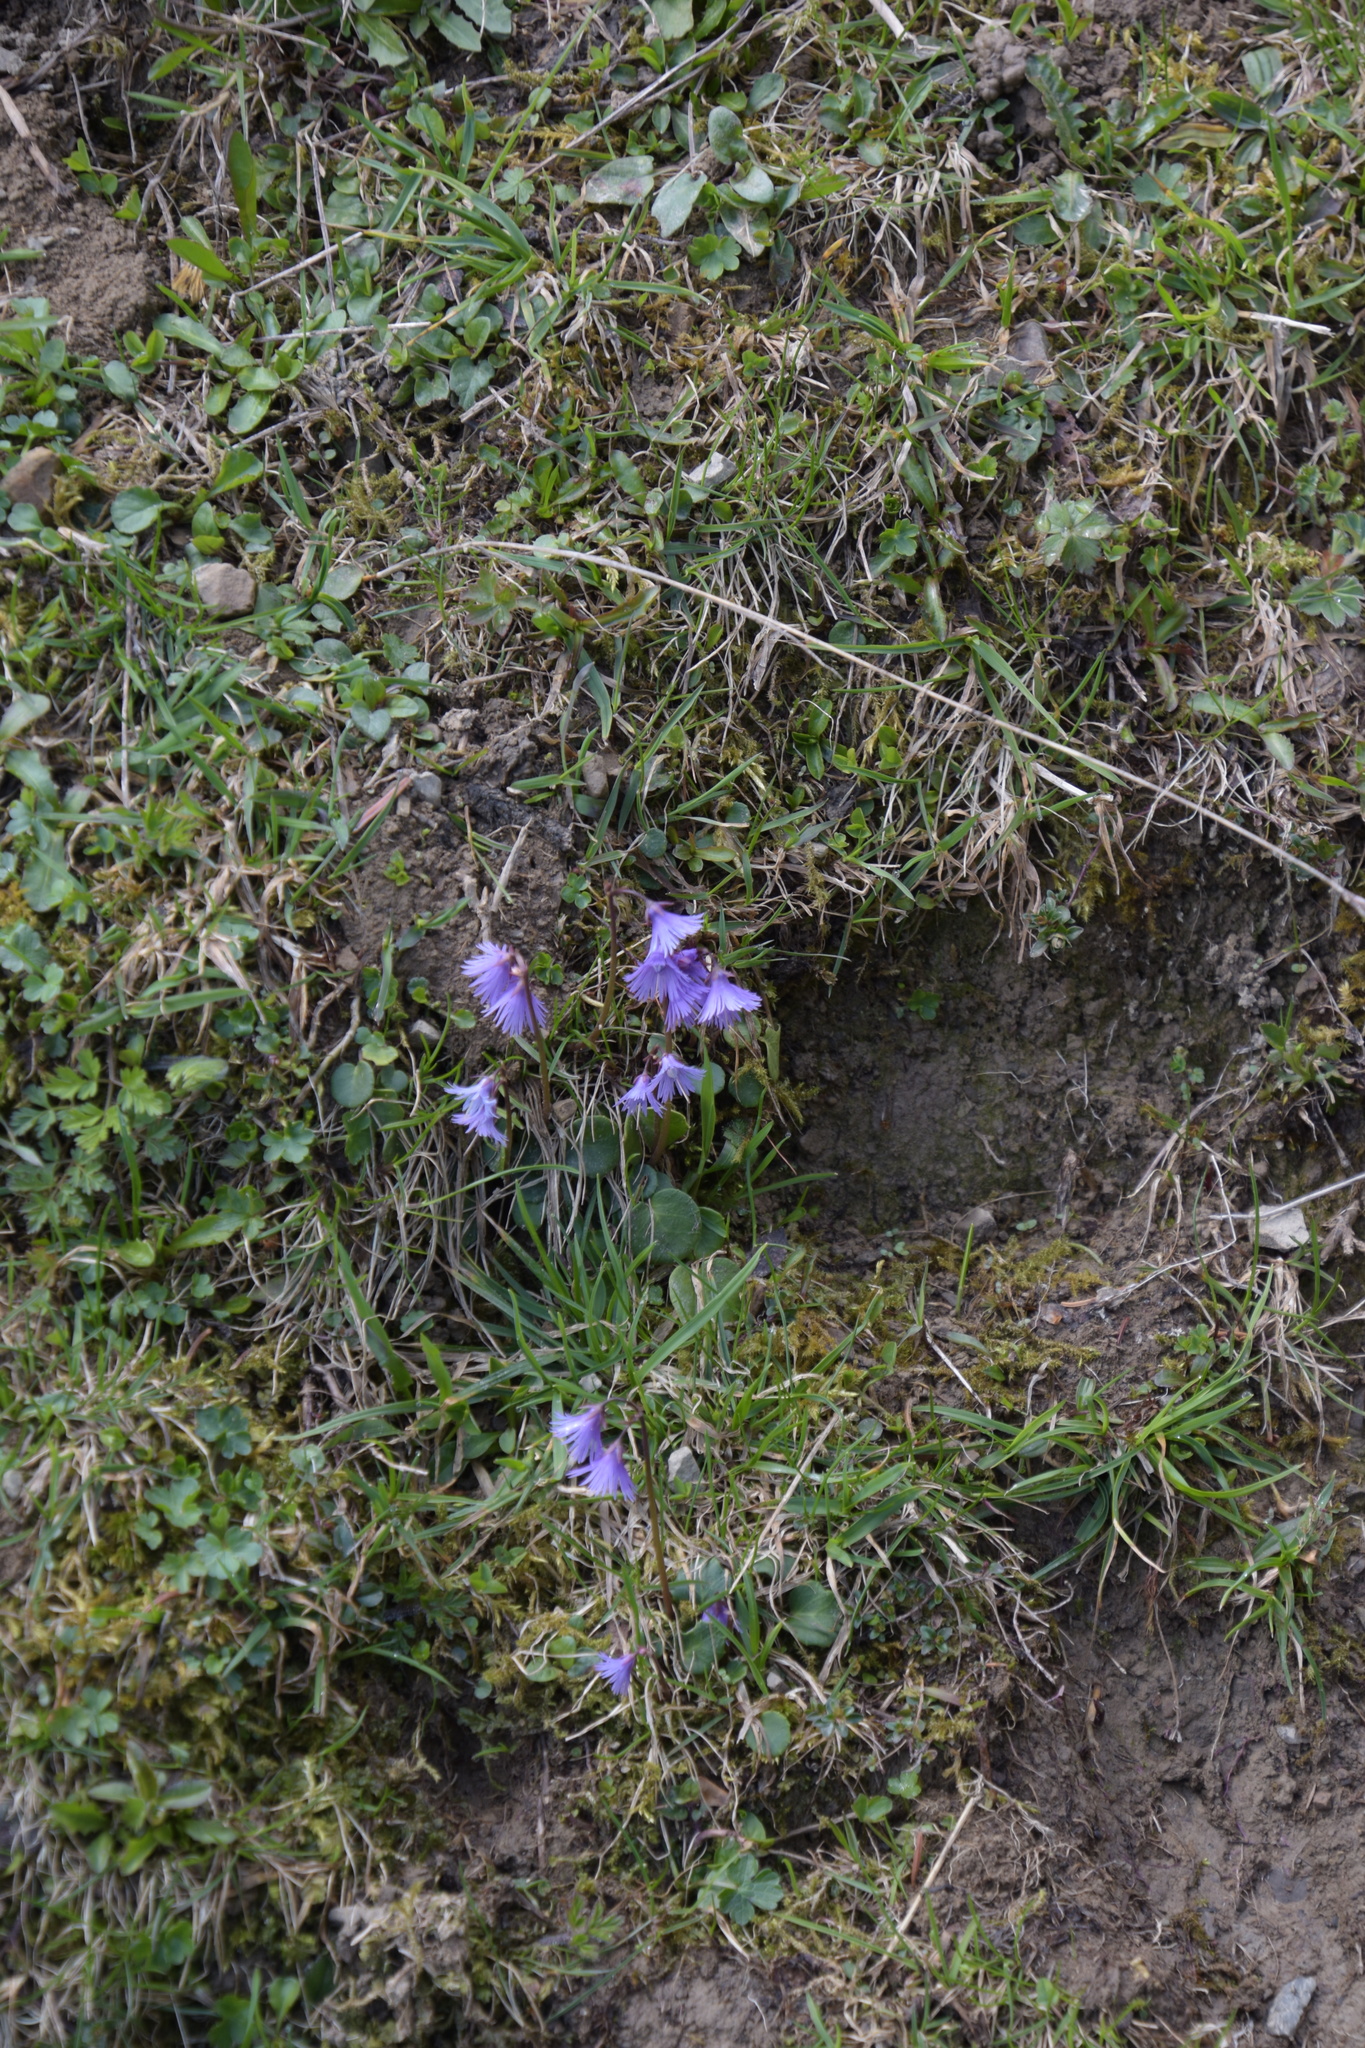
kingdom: Plantae
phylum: Tracheophyta
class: Magnoliopsida
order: Ericales
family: Primulaceae
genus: Soldanella
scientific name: Soldanella alpina
